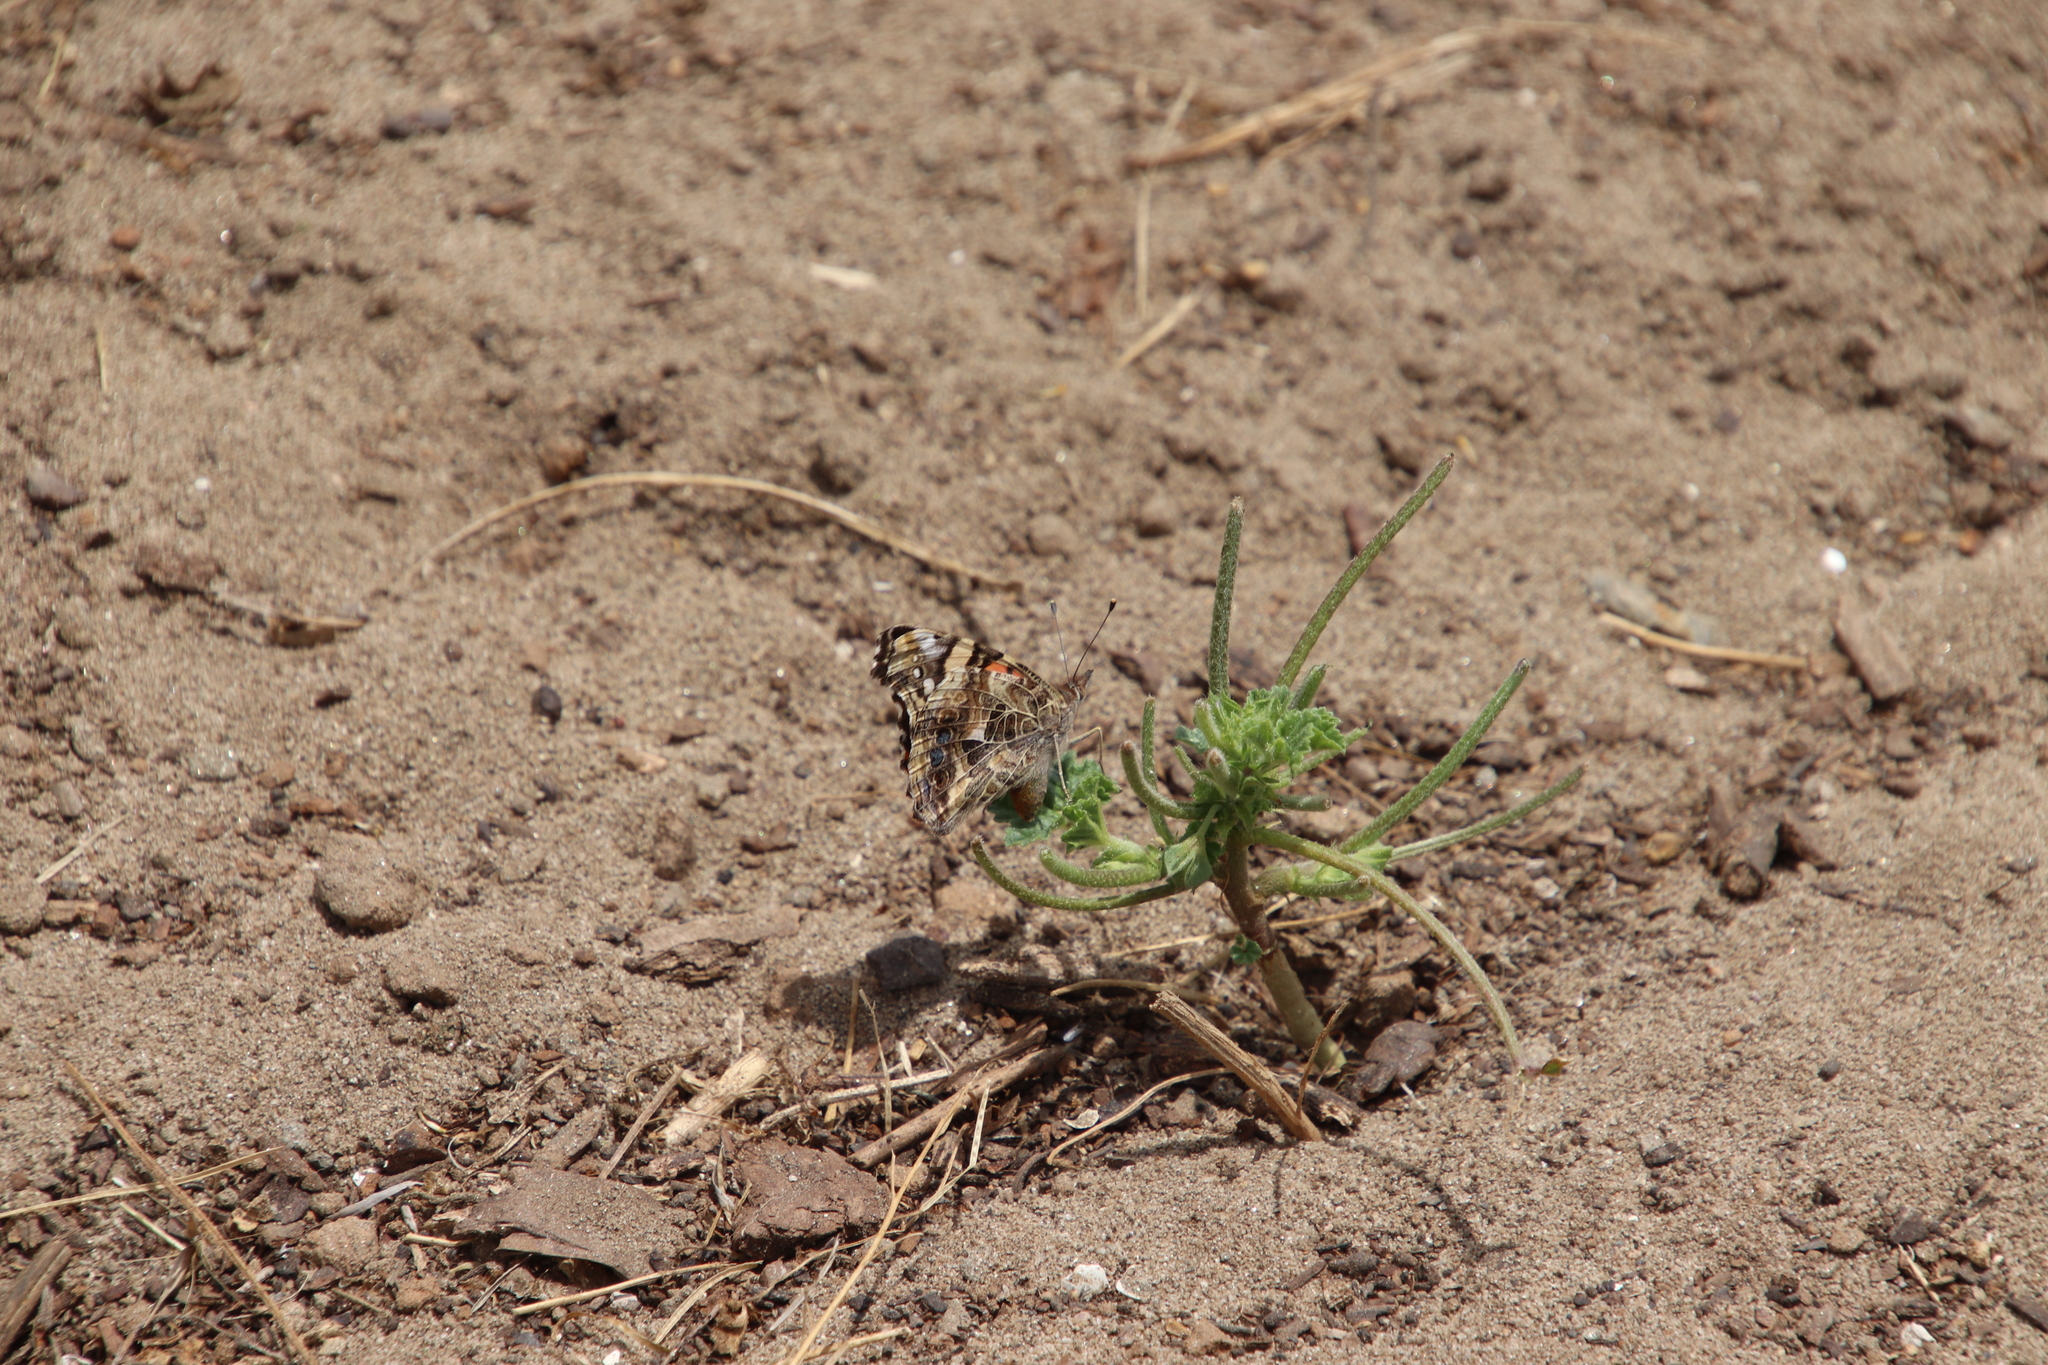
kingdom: Animalia
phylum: Arthropoda
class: Insecta
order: Lepidoptera
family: Nymphalidae
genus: Vanessa
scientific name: Vanessa annabella
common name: West coast lady
